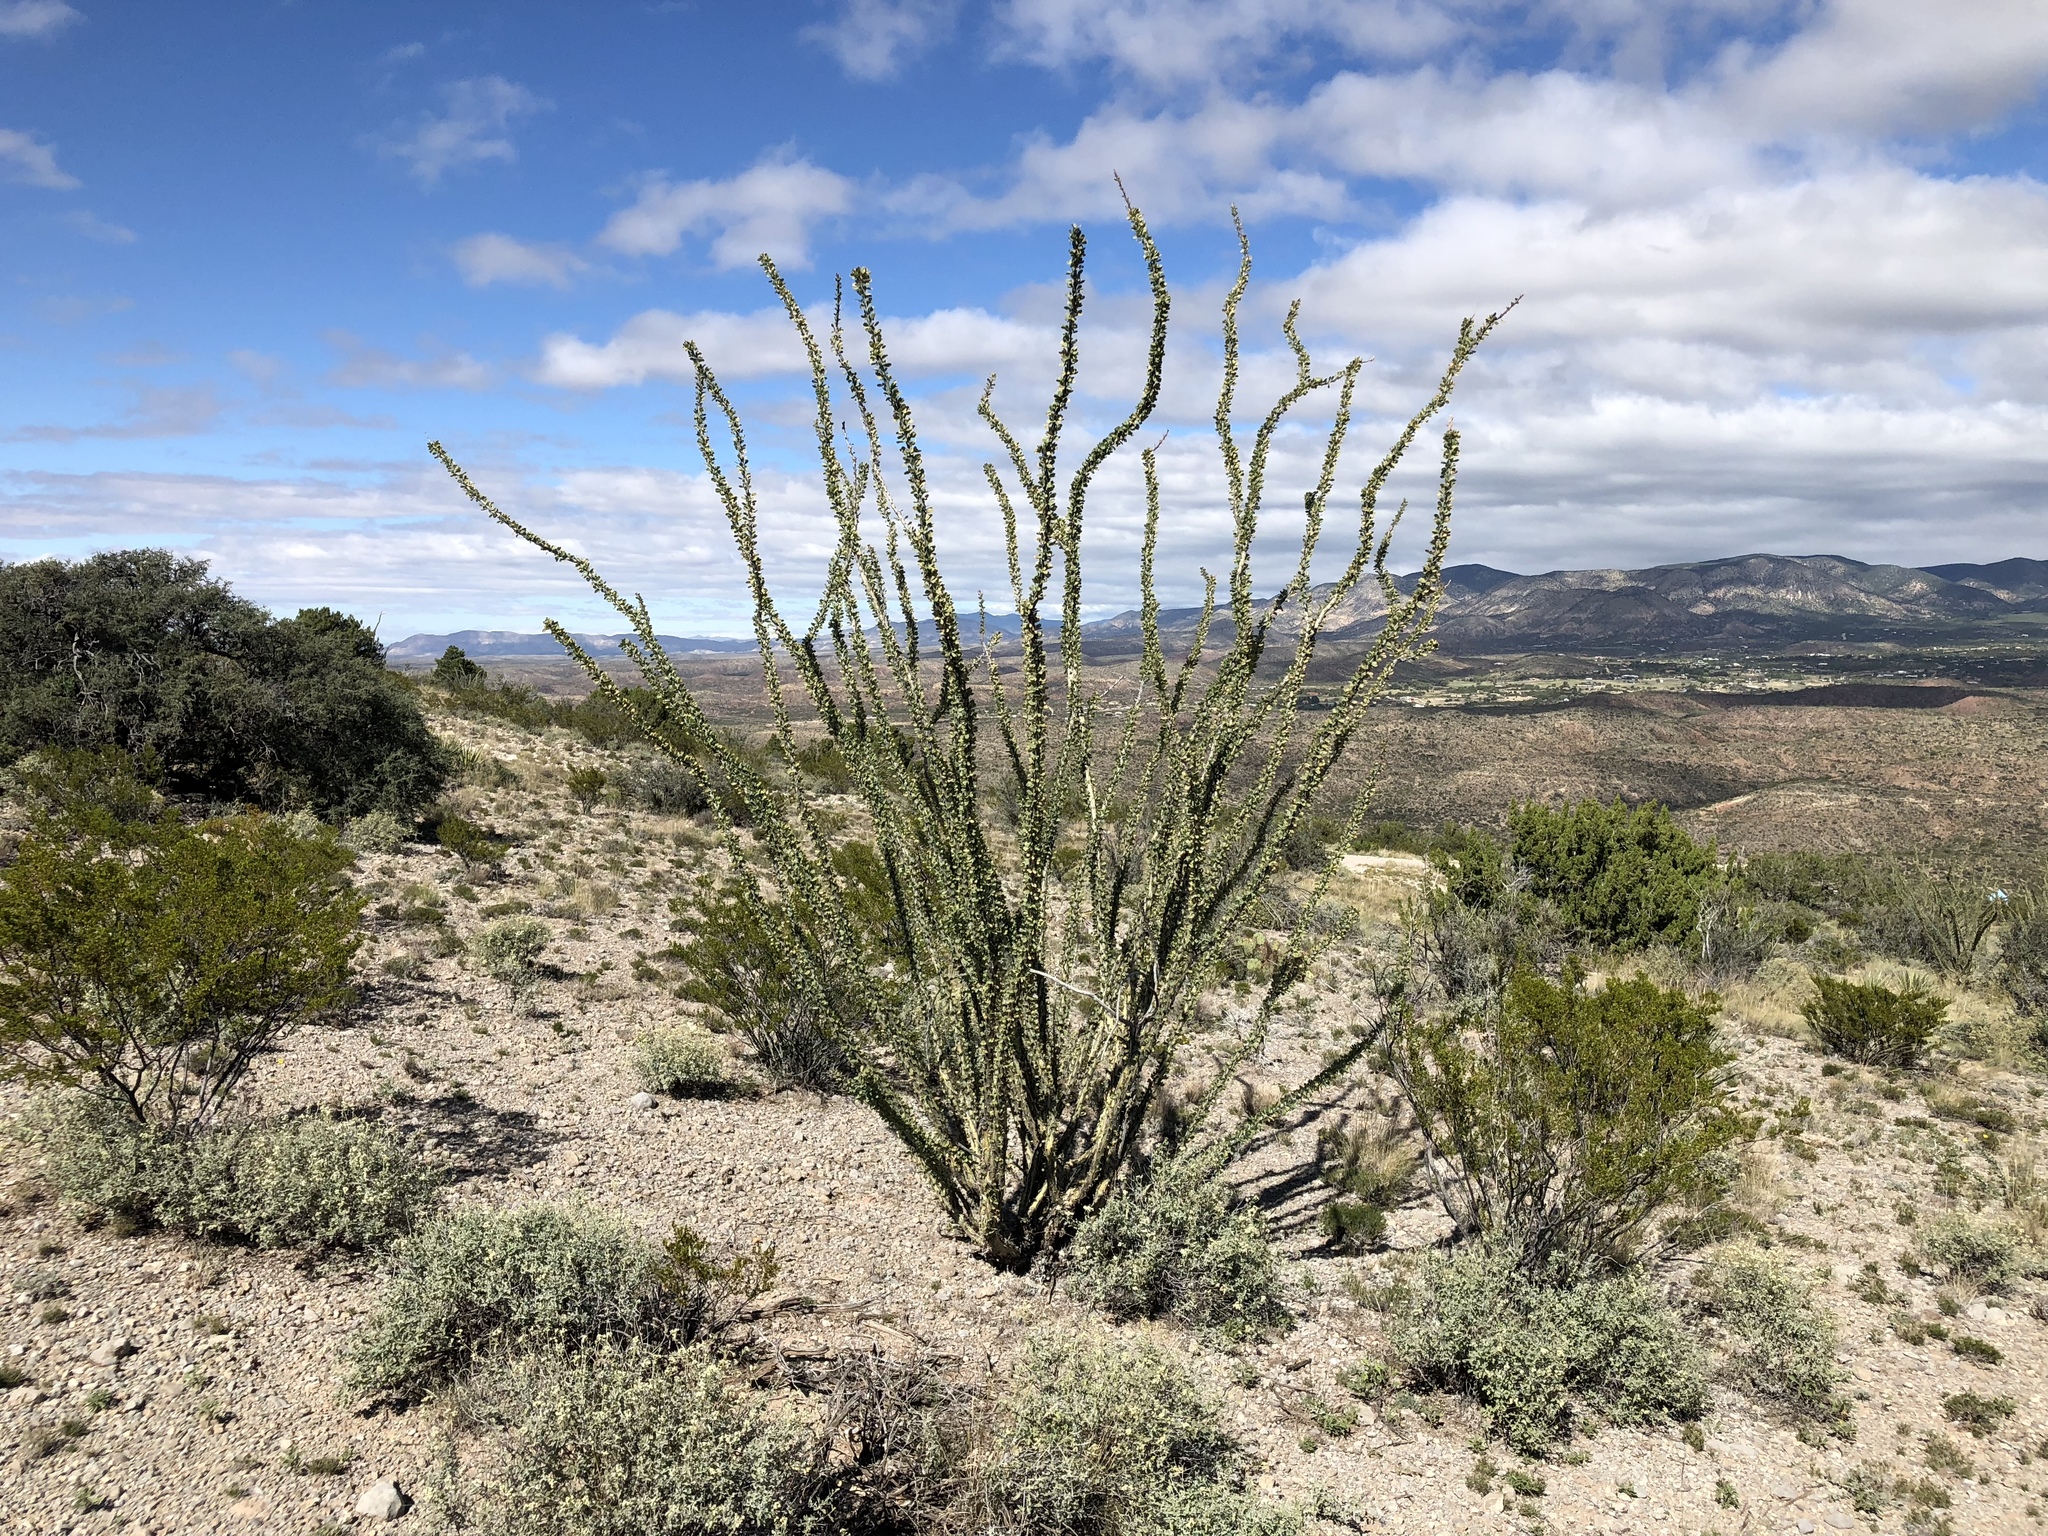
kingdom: Plantae
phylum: Tracheophyta
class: Magnoliopsida
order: Ericales
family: Fouquieriaceae
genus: Fouquieria
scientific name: Fouquieria splendens
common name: Vine-cactus
